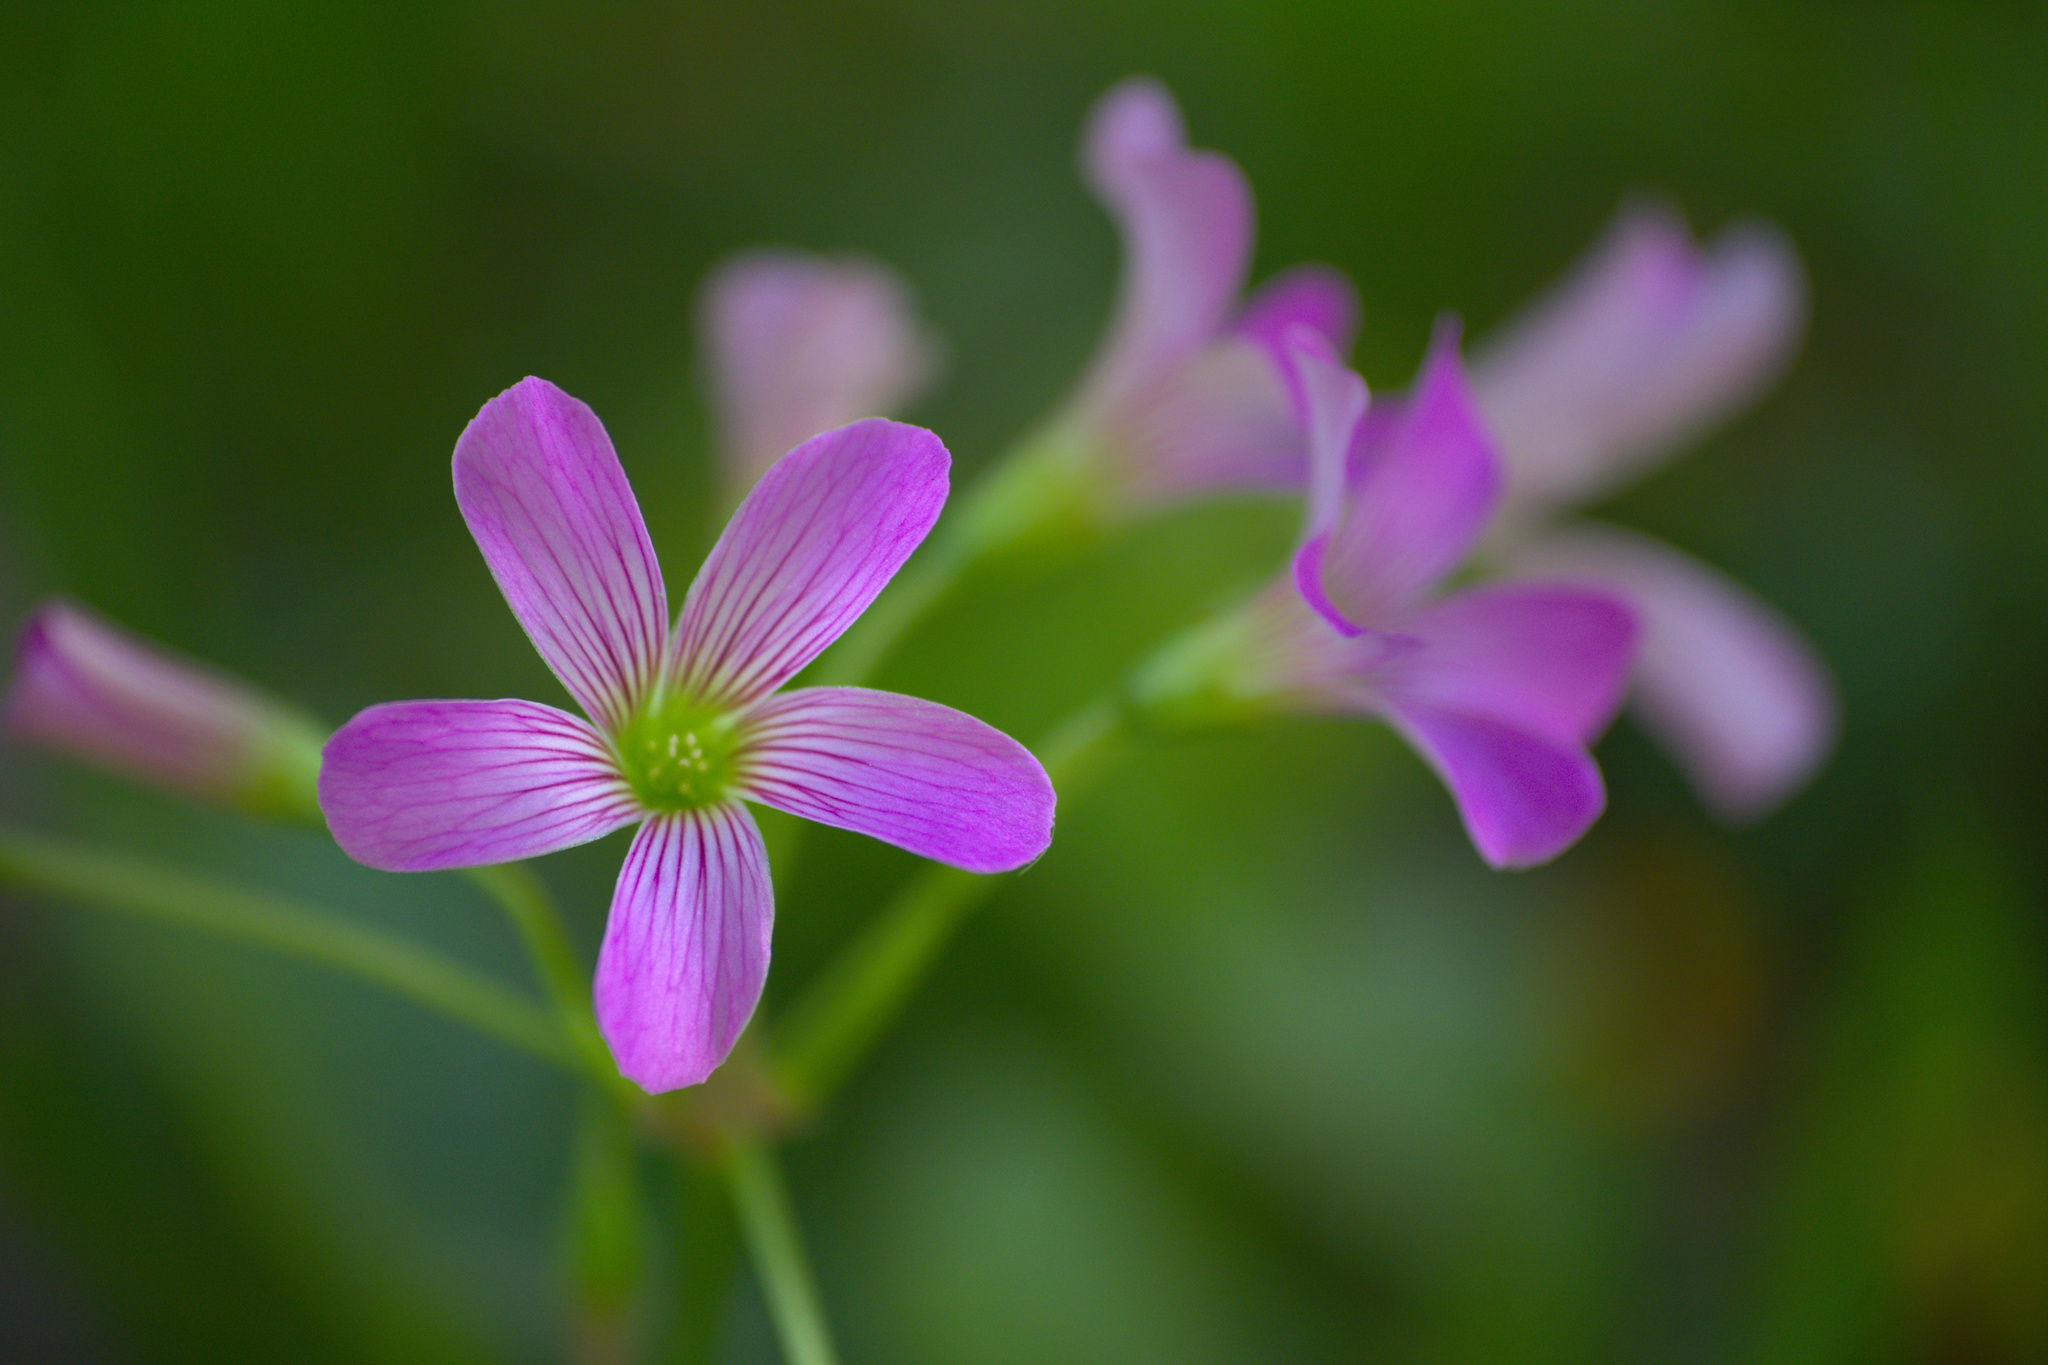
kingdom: Plantae
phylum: Tracheophyta
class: Magnoliopsida
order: Oxalidales
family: Oxalidaceae
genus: Oxalis
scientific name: Oxalis debilis
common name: Large-flowered pink-sorrel
